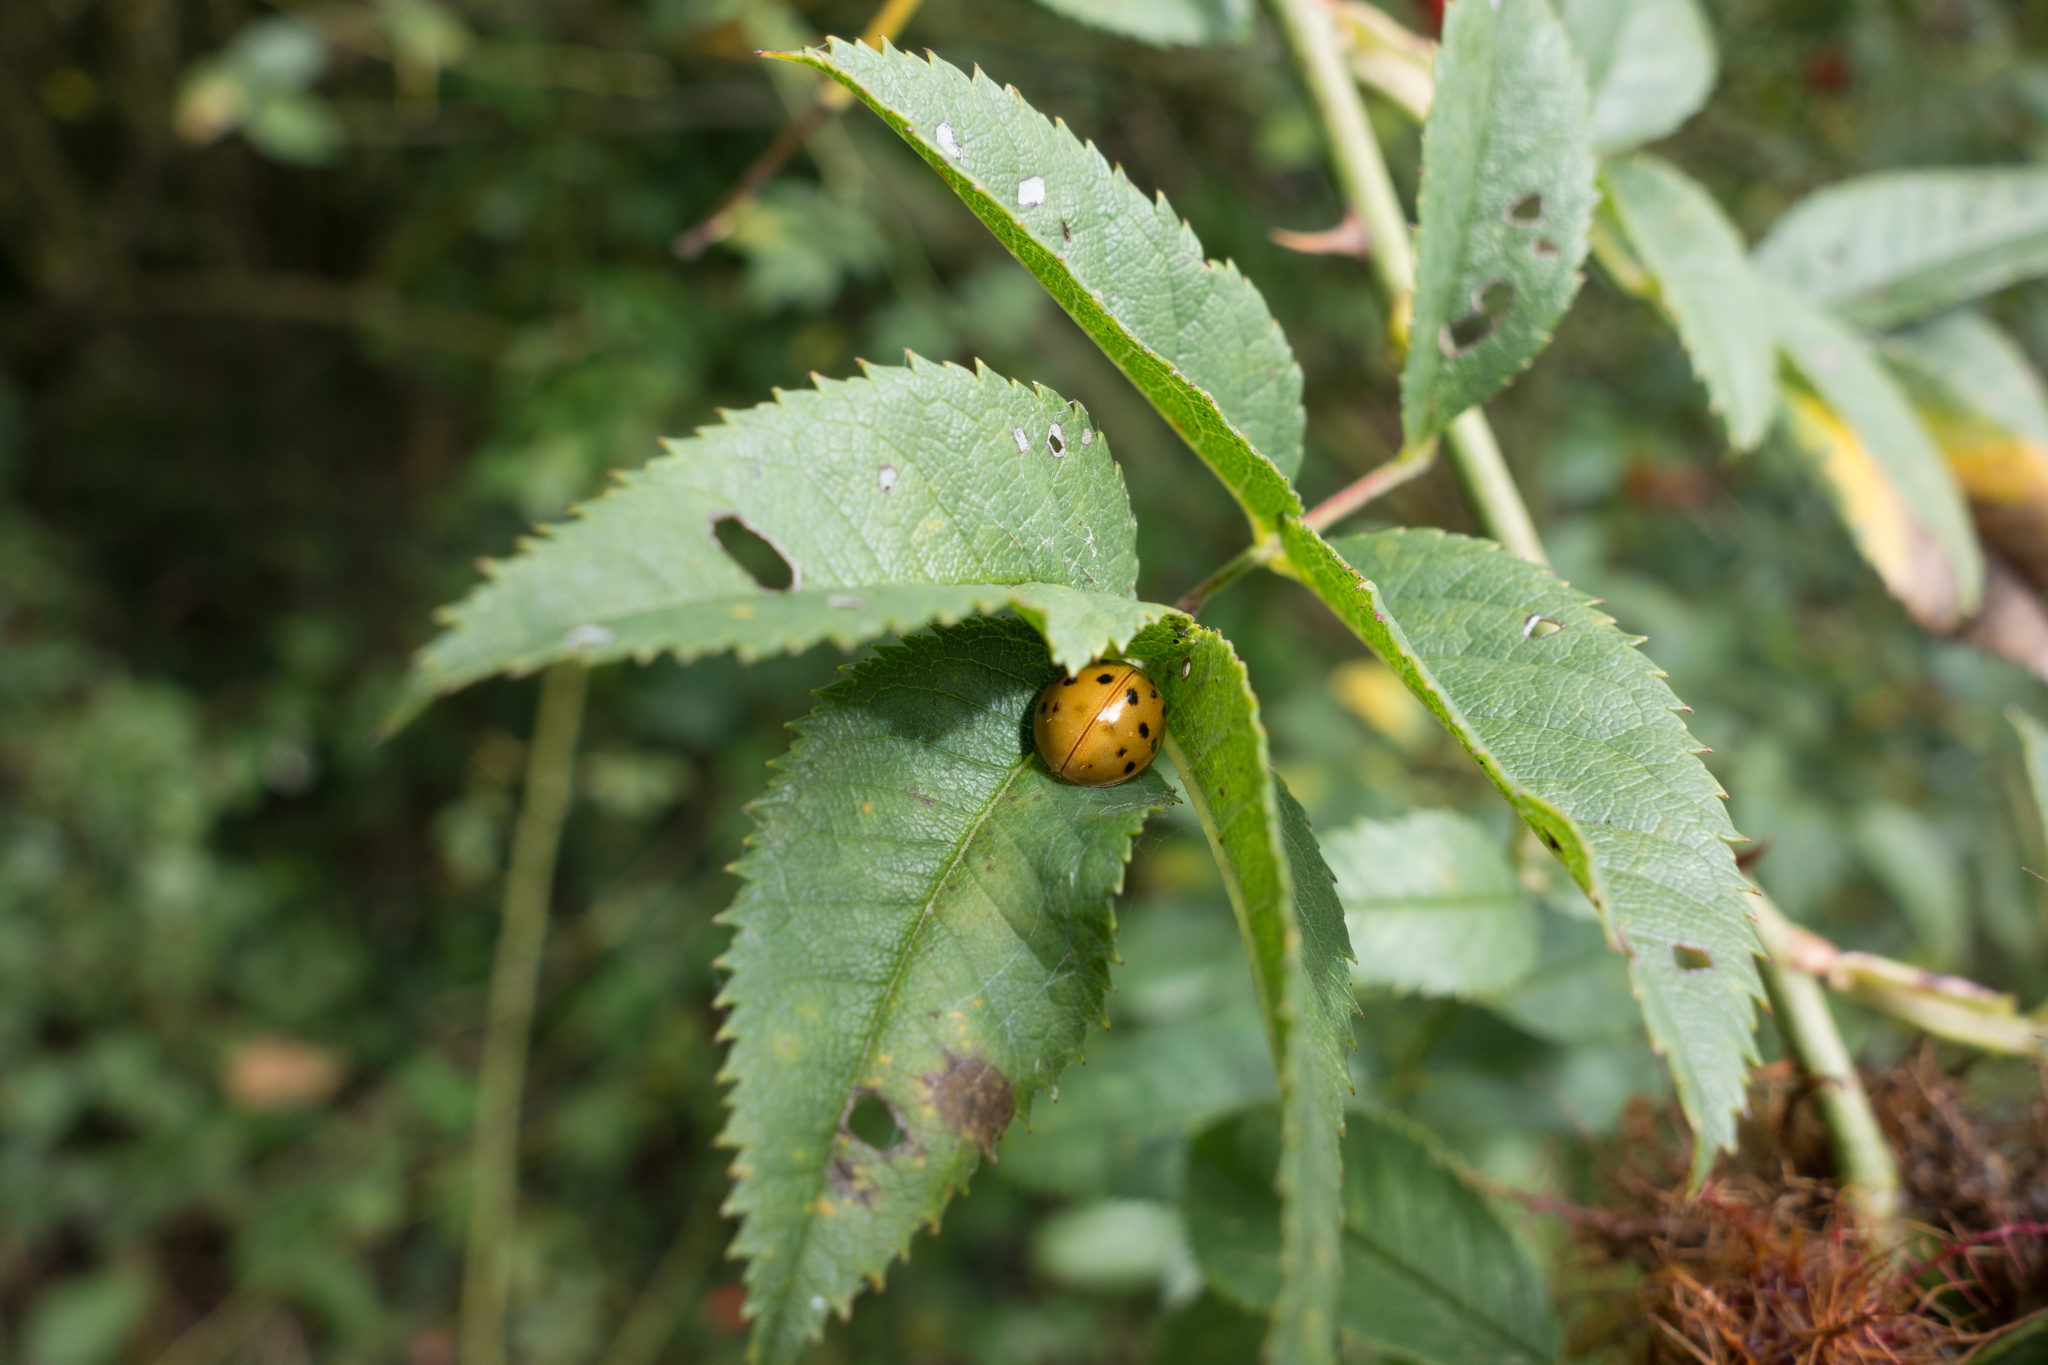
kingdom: Animalia
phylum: Arthropoda
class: Insecta
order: Coleoptera
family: Coccinellidae
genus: Harmonia
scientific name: Harmonia axyridis
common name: Harlequin ladybird
